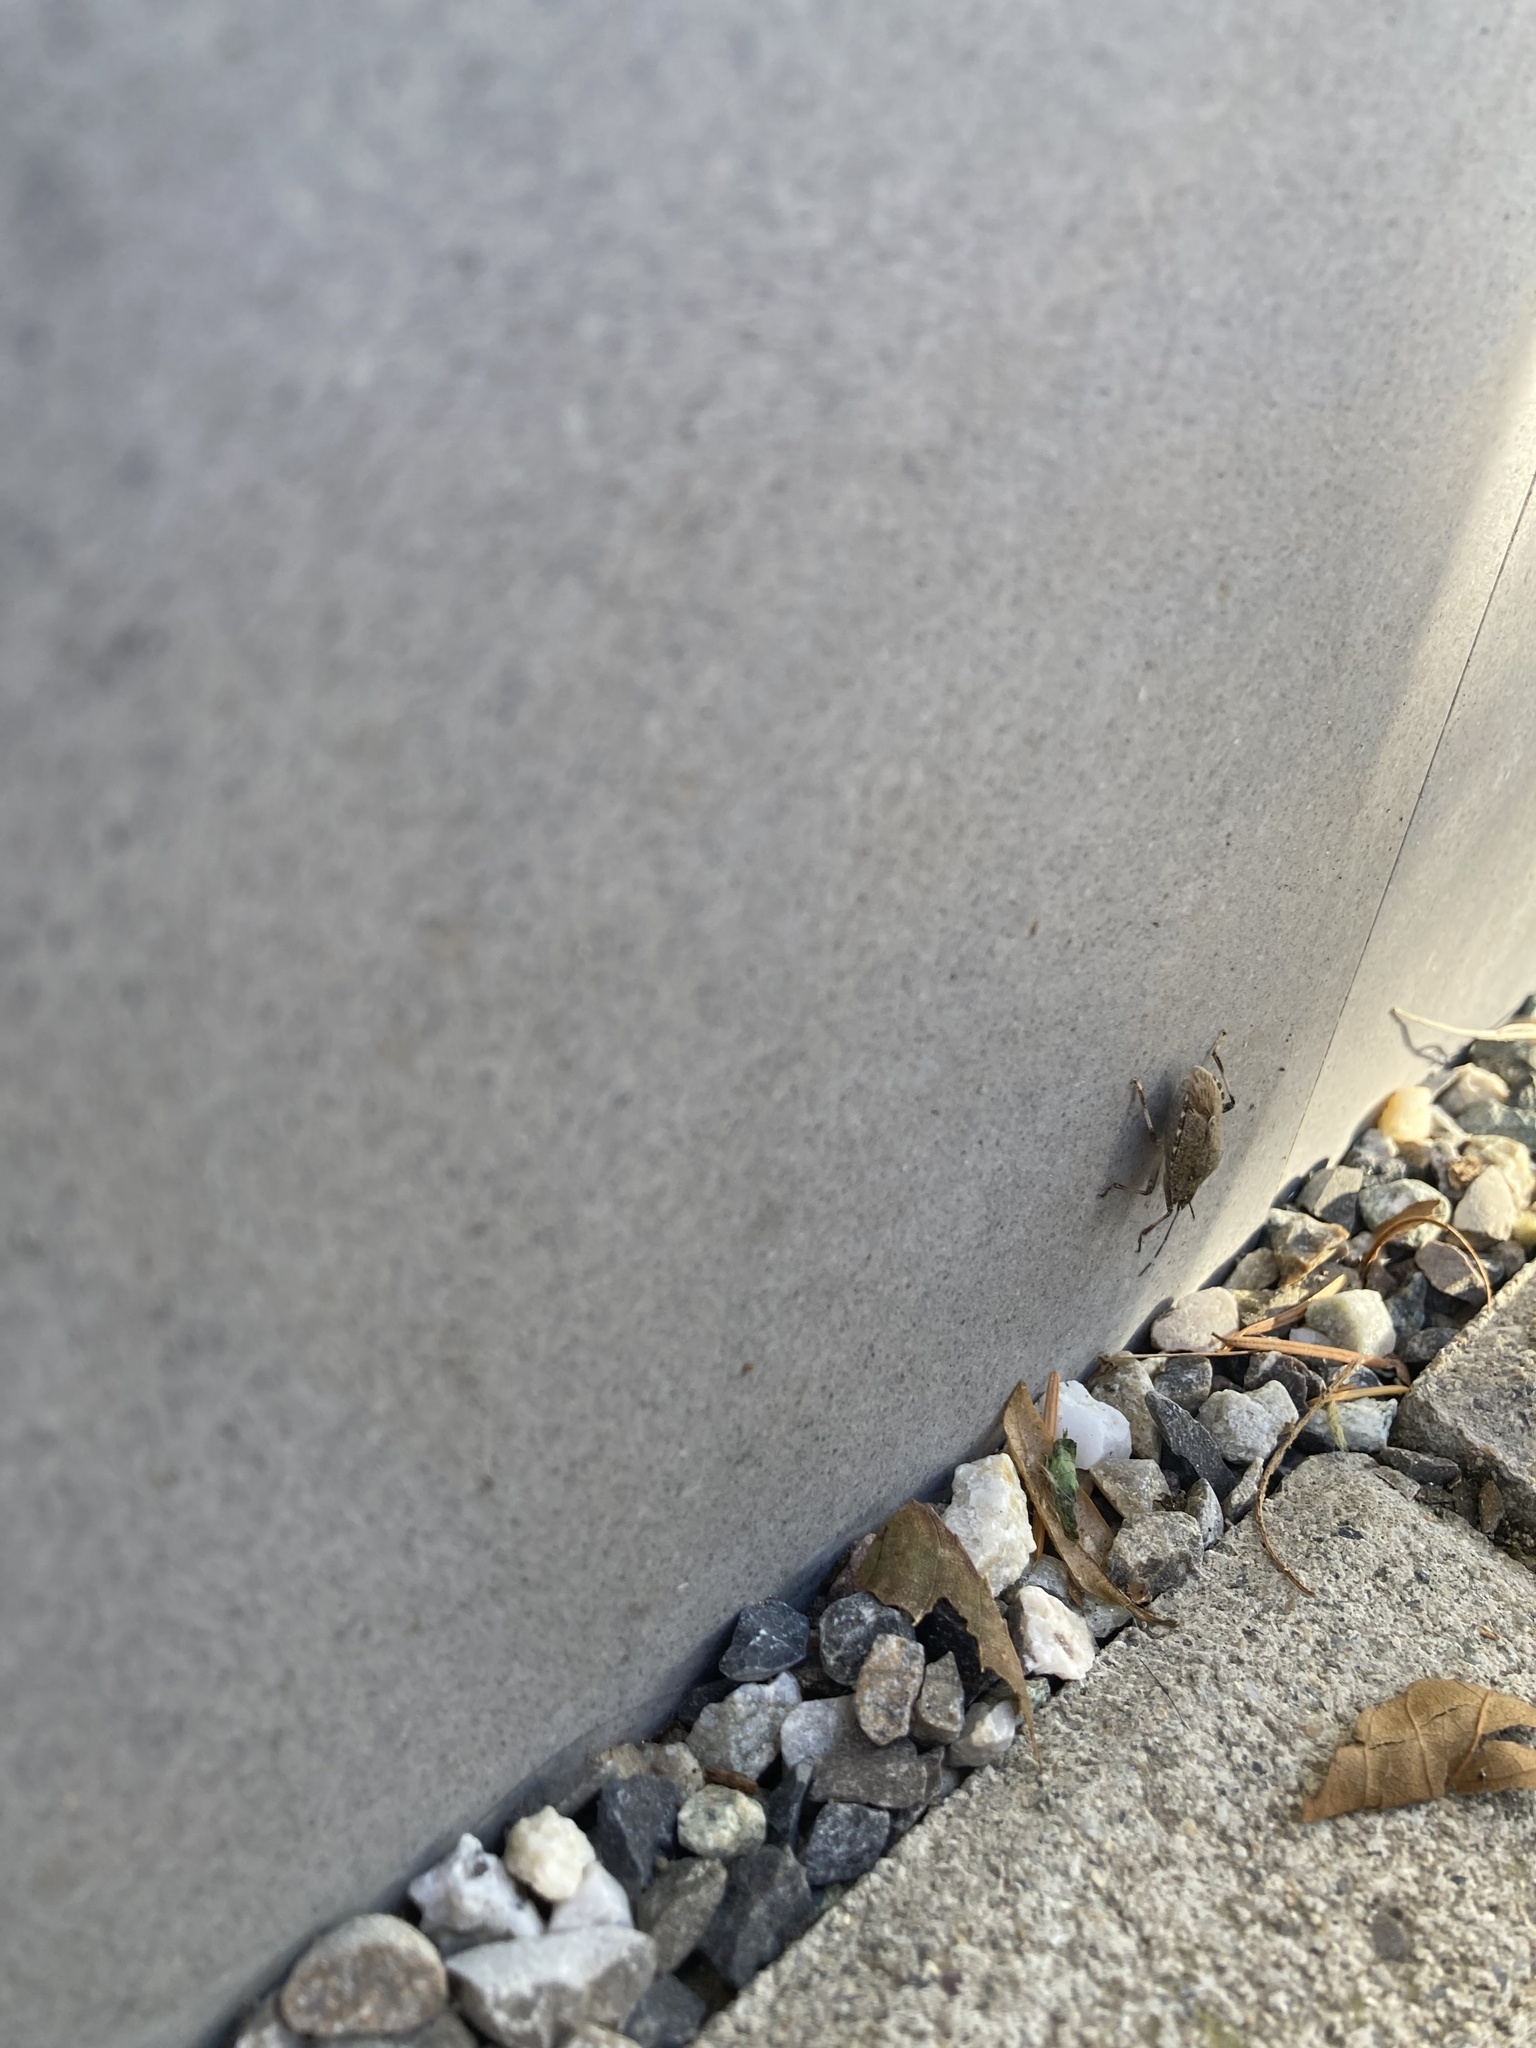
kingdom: Animalia
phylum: Arthropoda
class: Insecta
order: Hemiptera
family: Pentatomidae
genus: Halyomorpha
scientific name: Halyomorpha halys
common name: Brown marmorated stink bug
